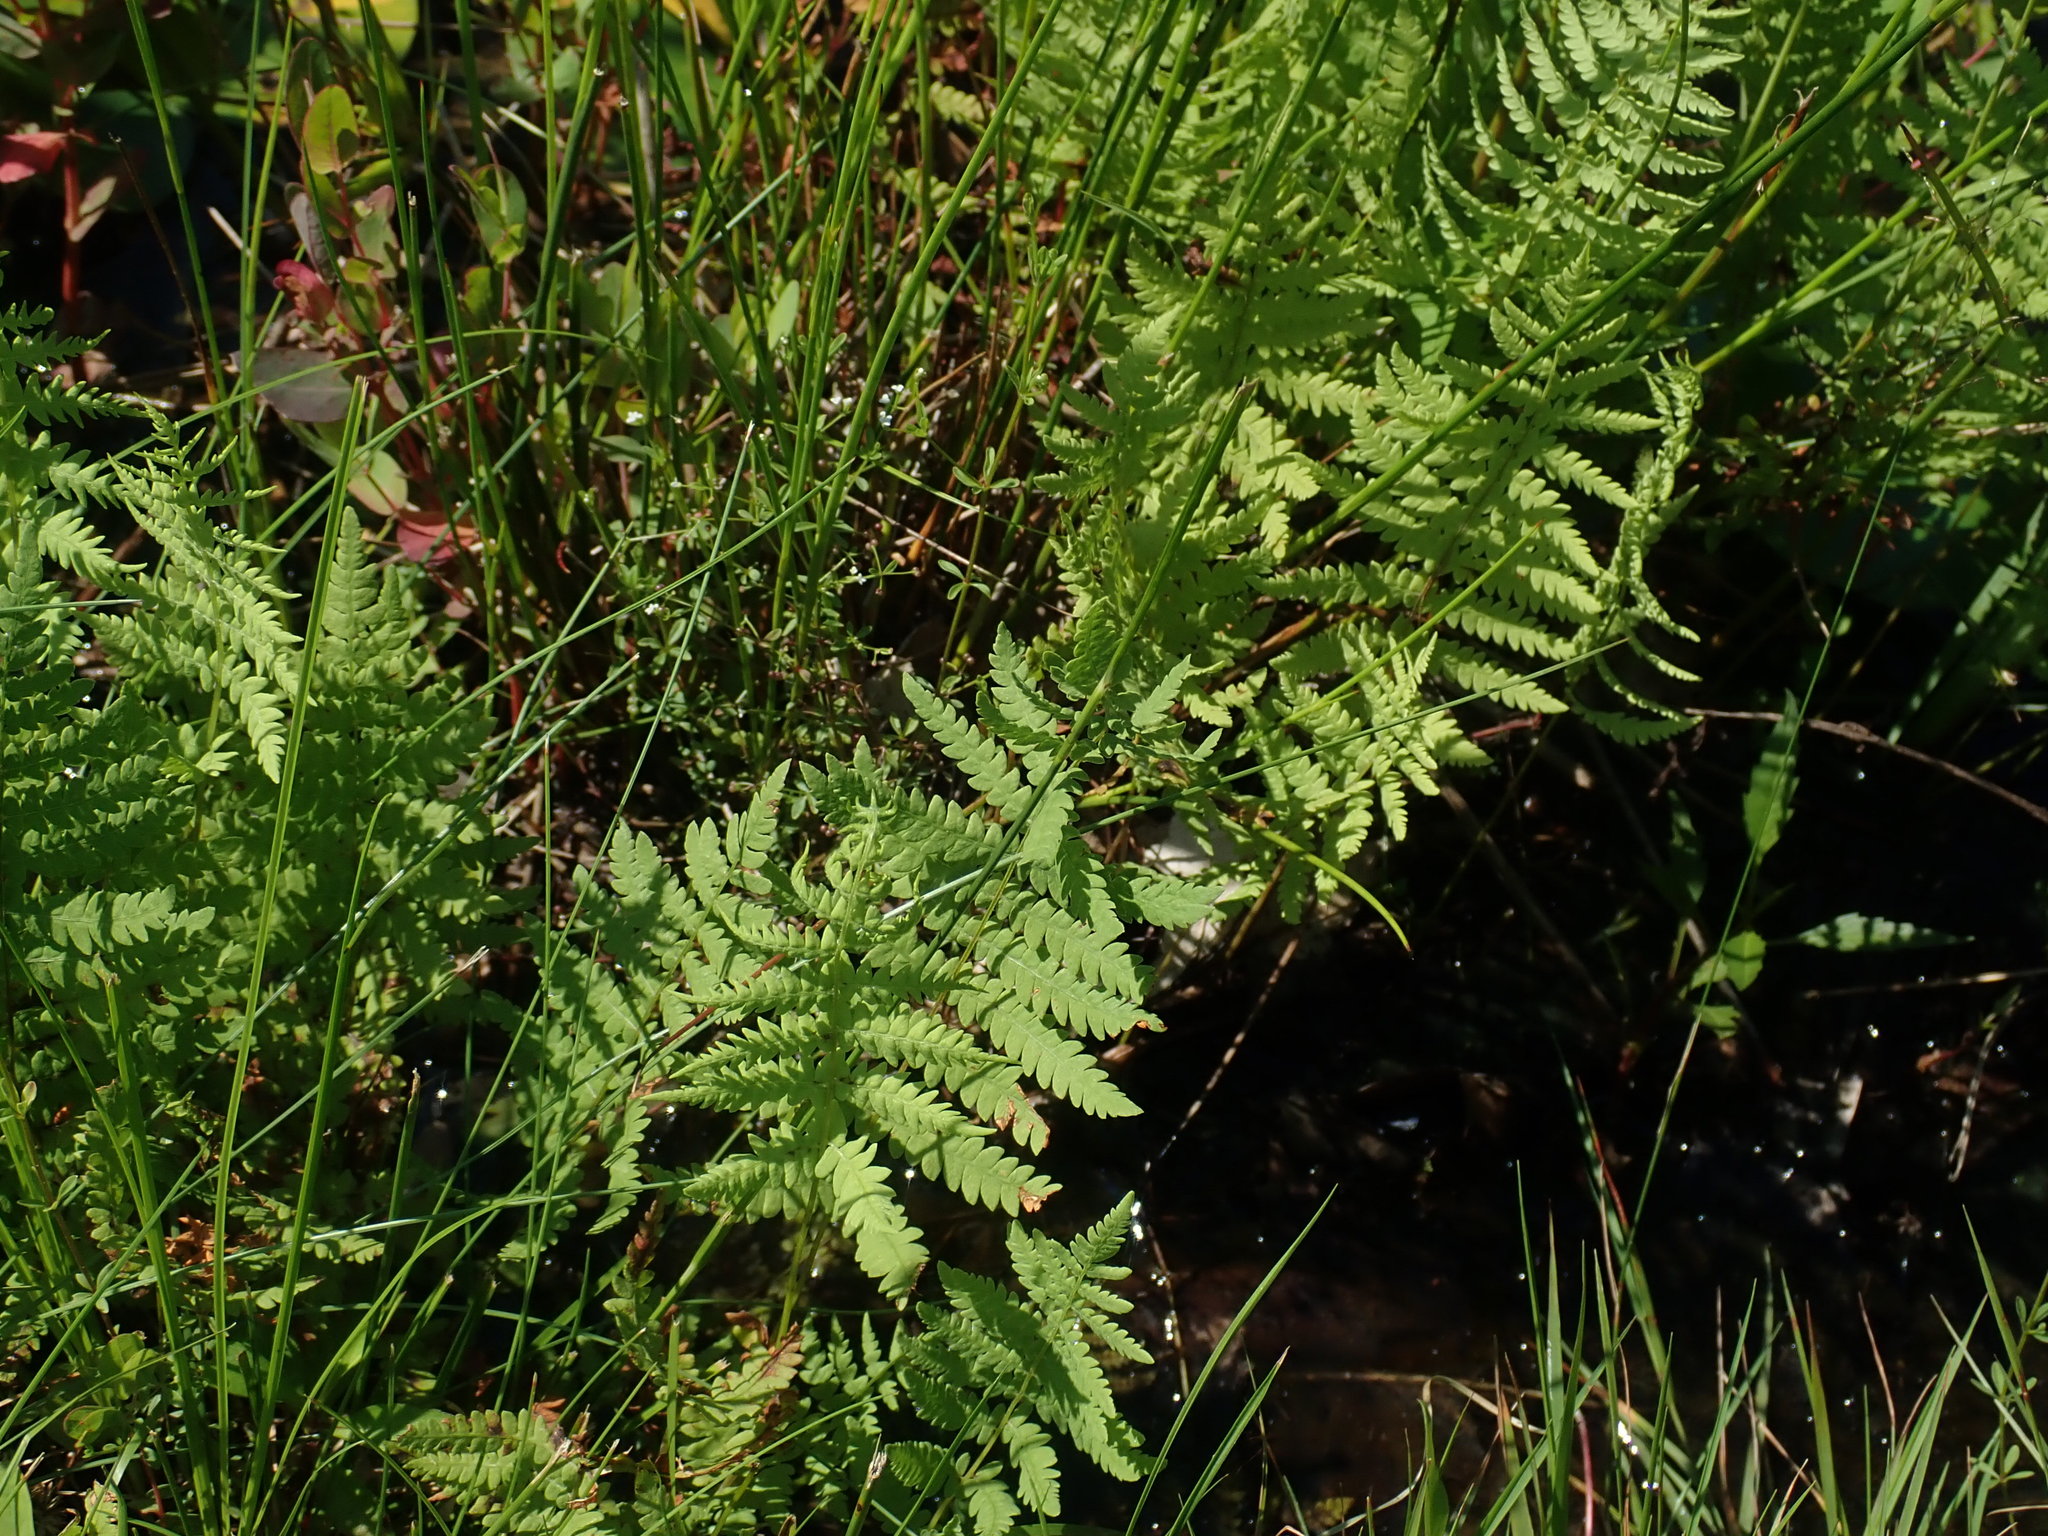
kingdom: Plantae
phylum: Tracheophyta
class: Polypodiopsida
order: Polypodiales
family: Thelypteridaceae
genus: Thelypteris
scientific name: Thelypteris palustris
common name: Marsh fern
